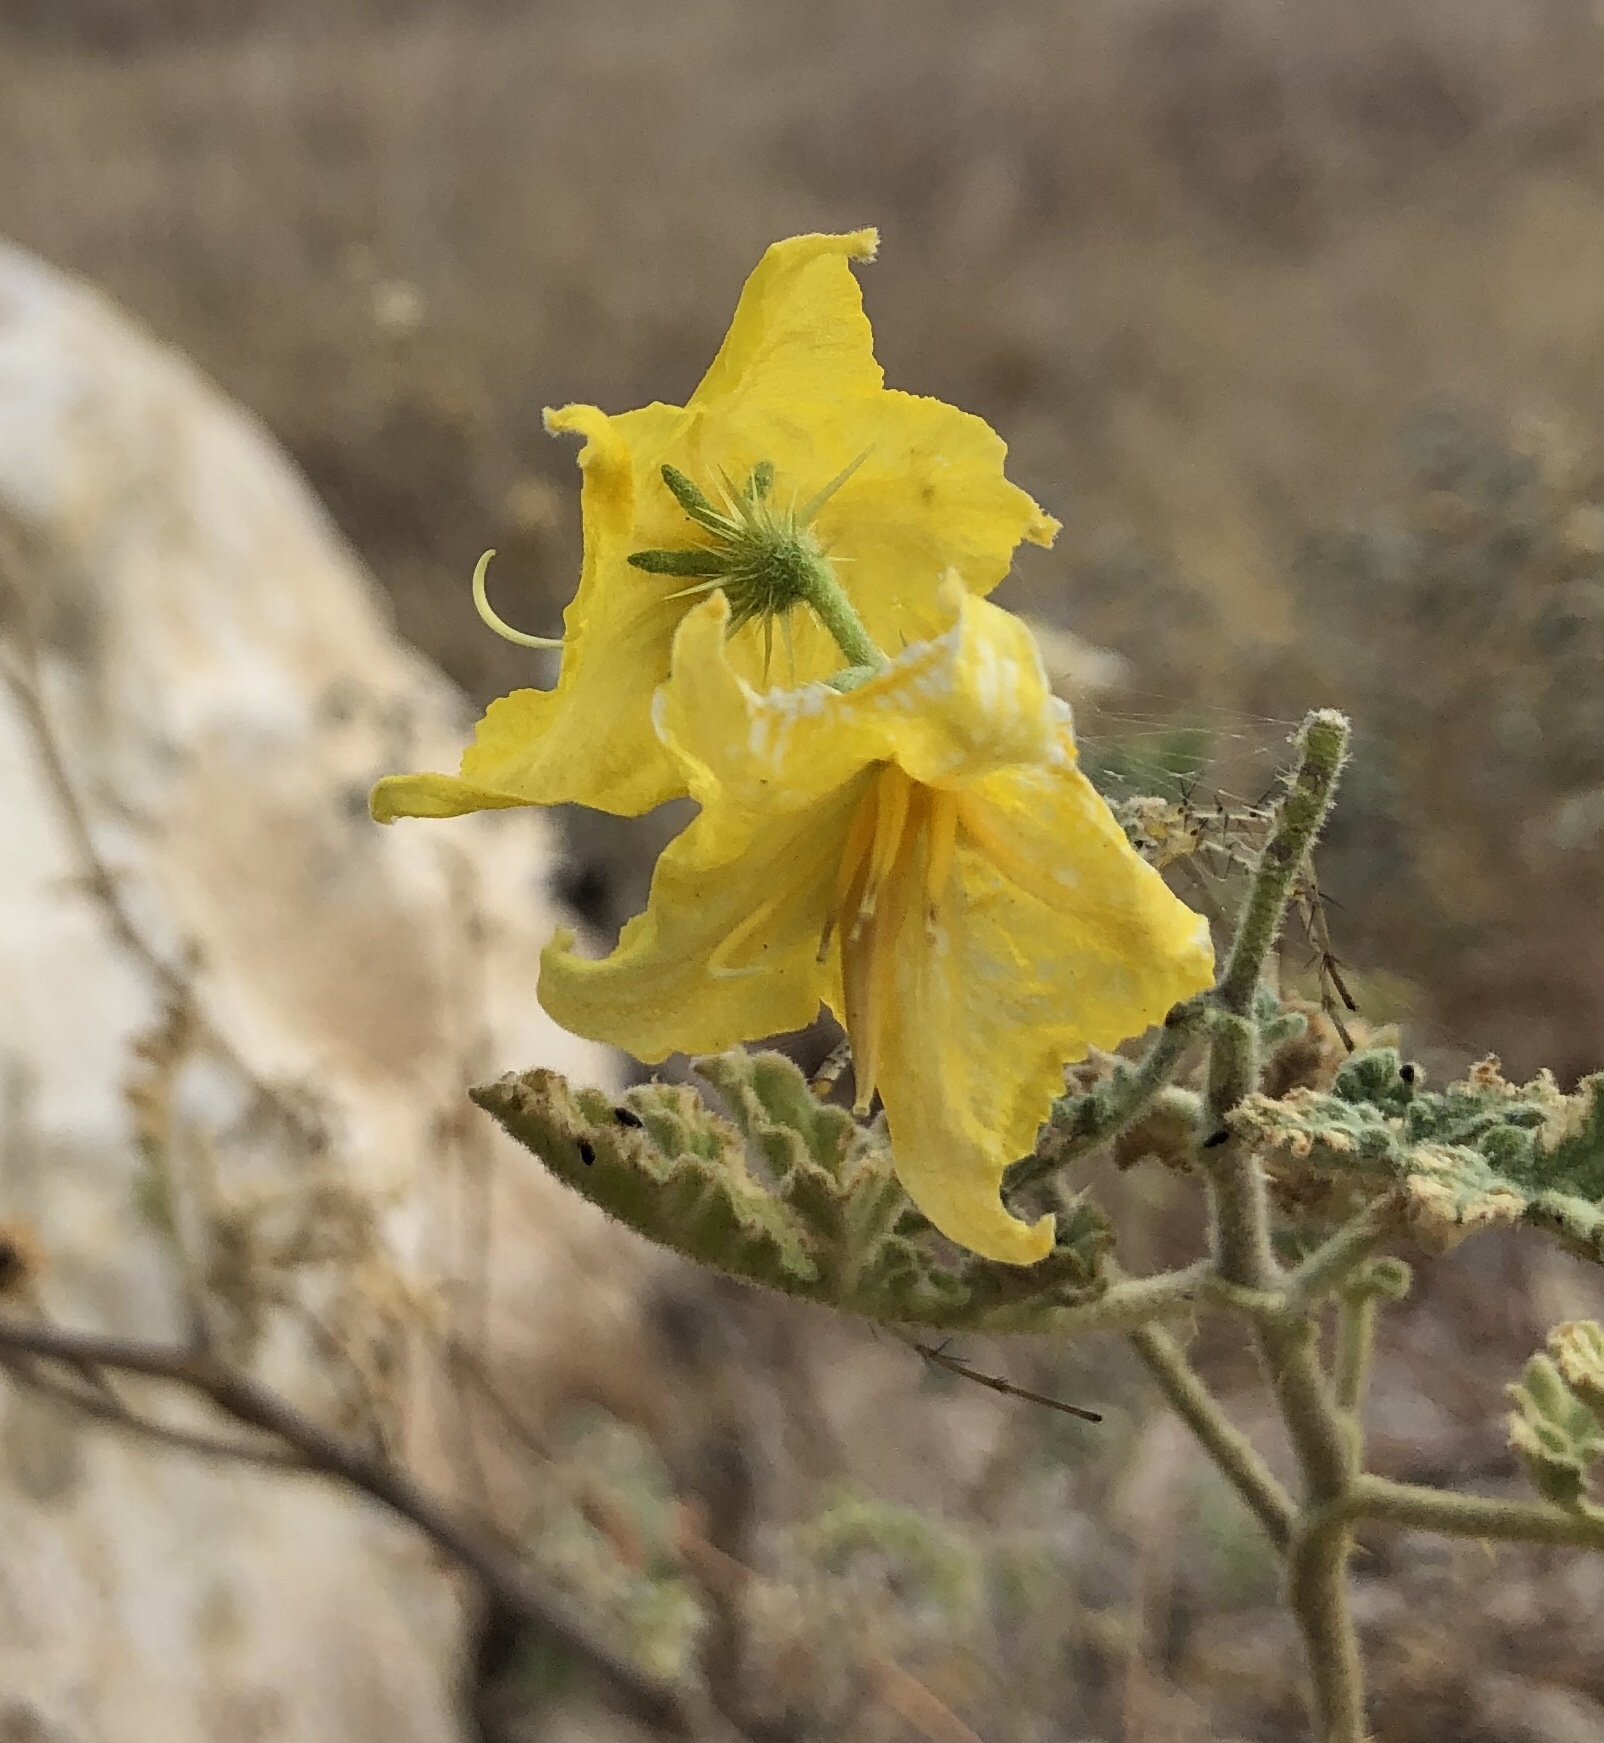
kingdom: Plantae
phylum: Tracheophyta
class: Magnoliopsida
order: Solanales
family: Solanaceae
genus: Solanum
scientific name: Solanum angustifolium
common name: Buffalobur nightshade
